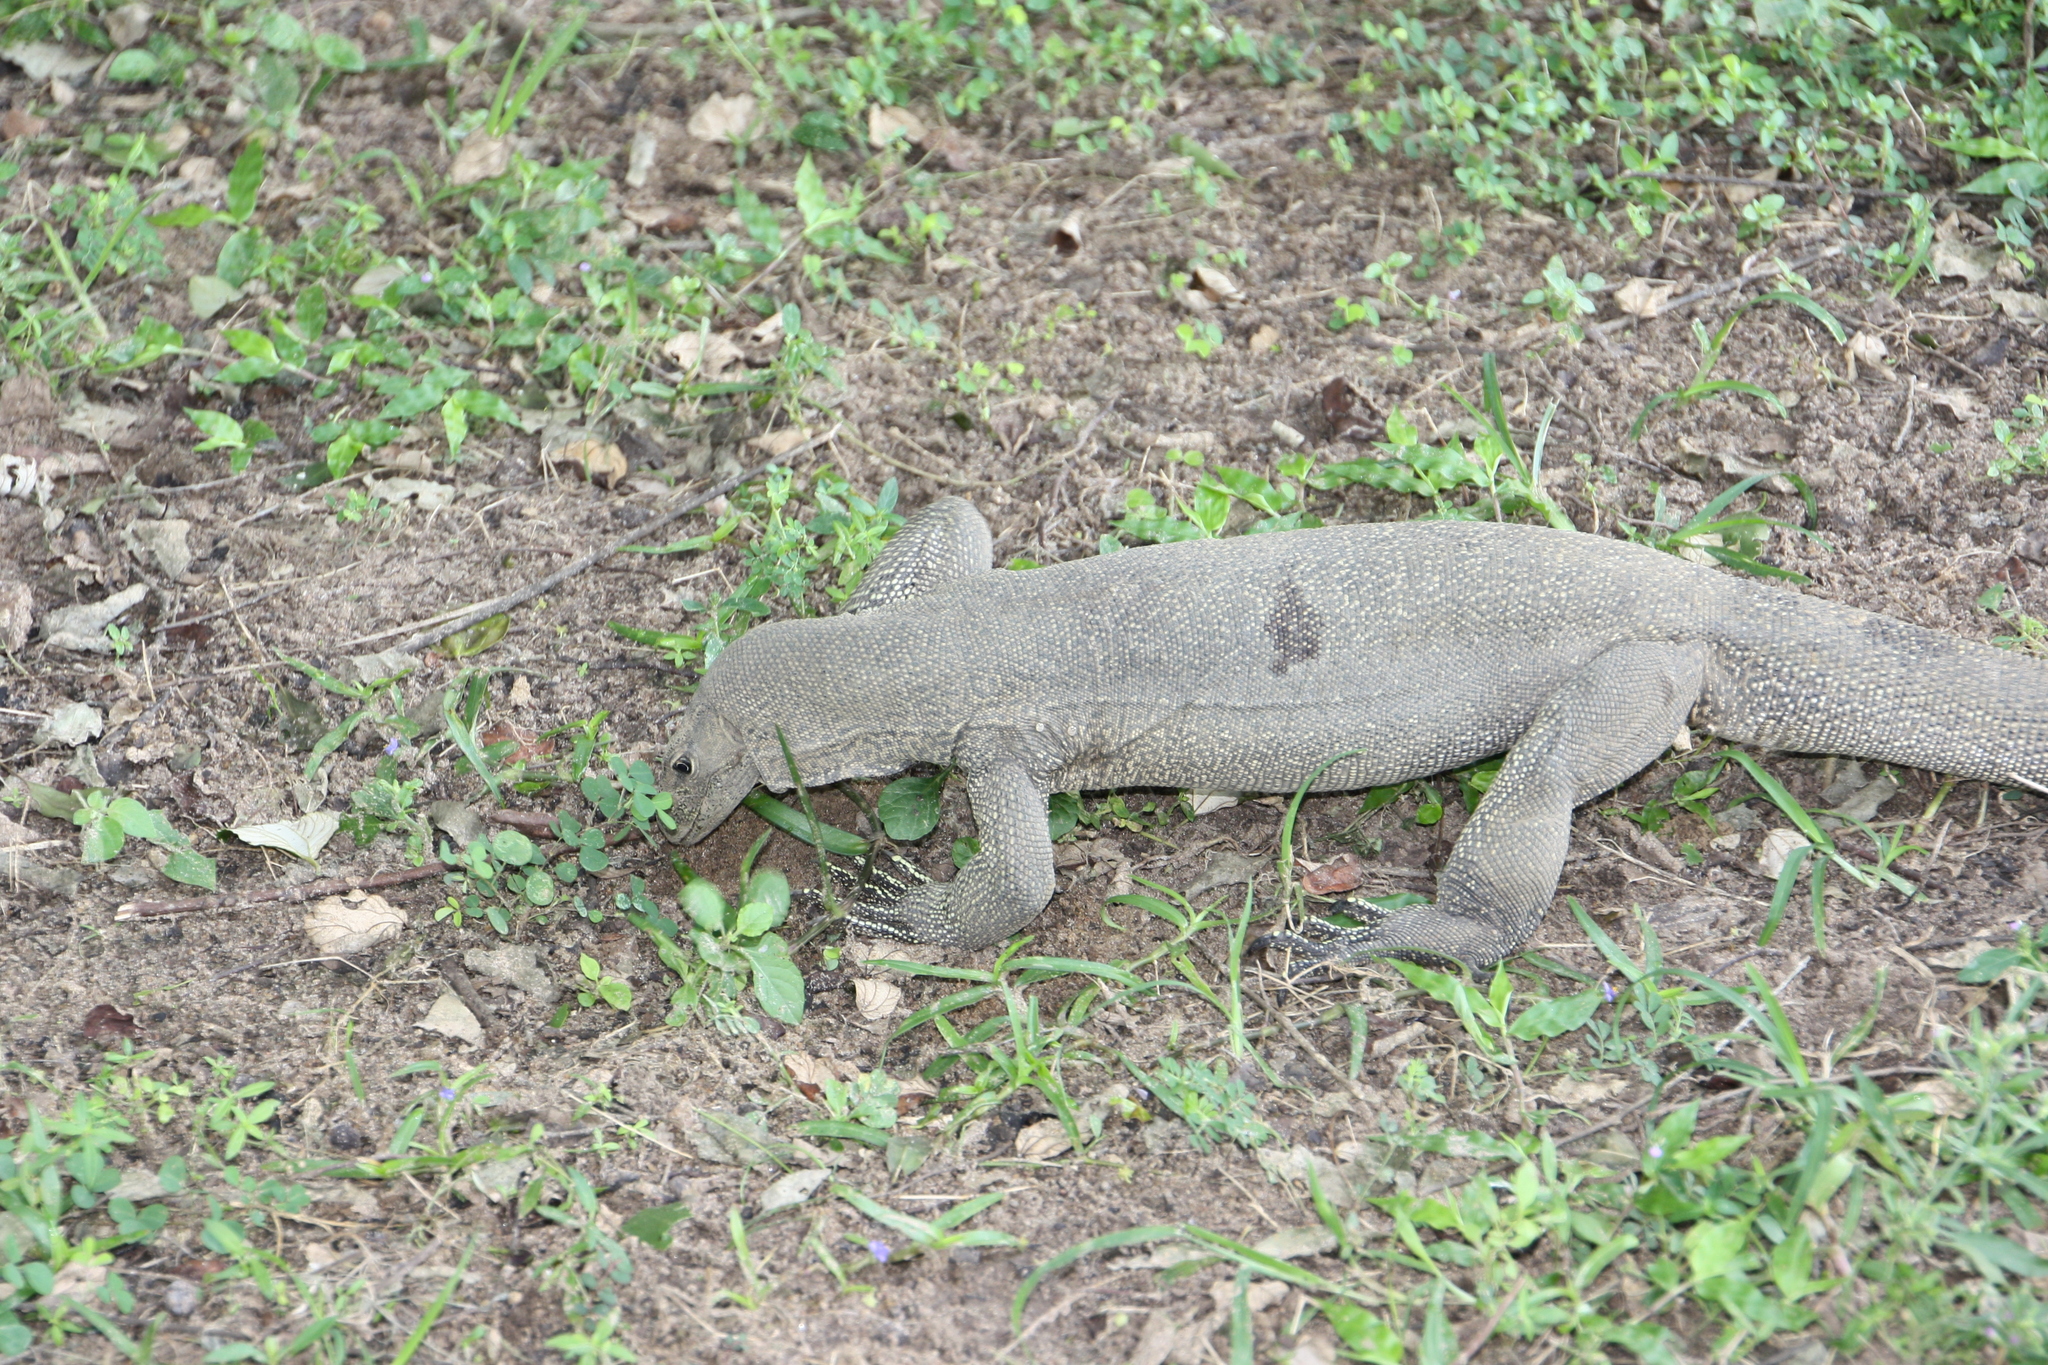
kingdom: Animalia
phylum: Chordata
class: Squamata
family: Varanidae
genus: Varanus
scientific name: Varanus bengalensis
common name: Bengal monitor
